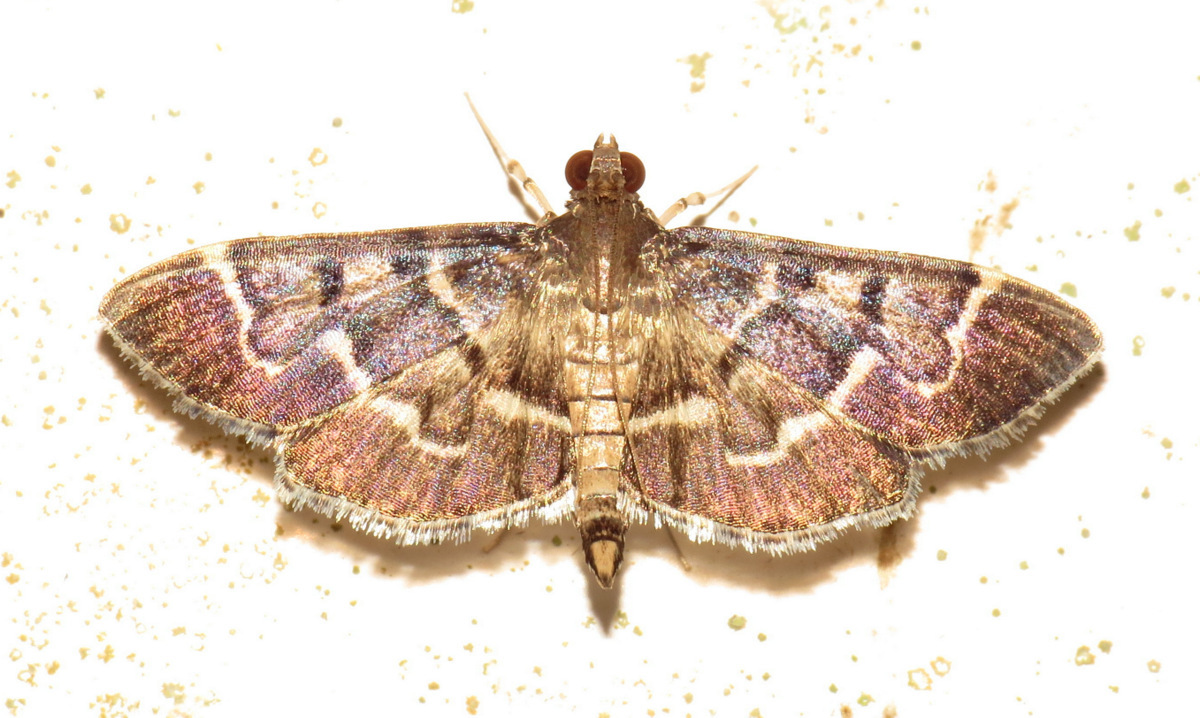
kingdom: Animalia
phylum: Arthropoda
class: Insecta
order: Lepidoptera
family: Crambidae
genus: Herpetogramma
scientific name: Herpetogramma salbialis
